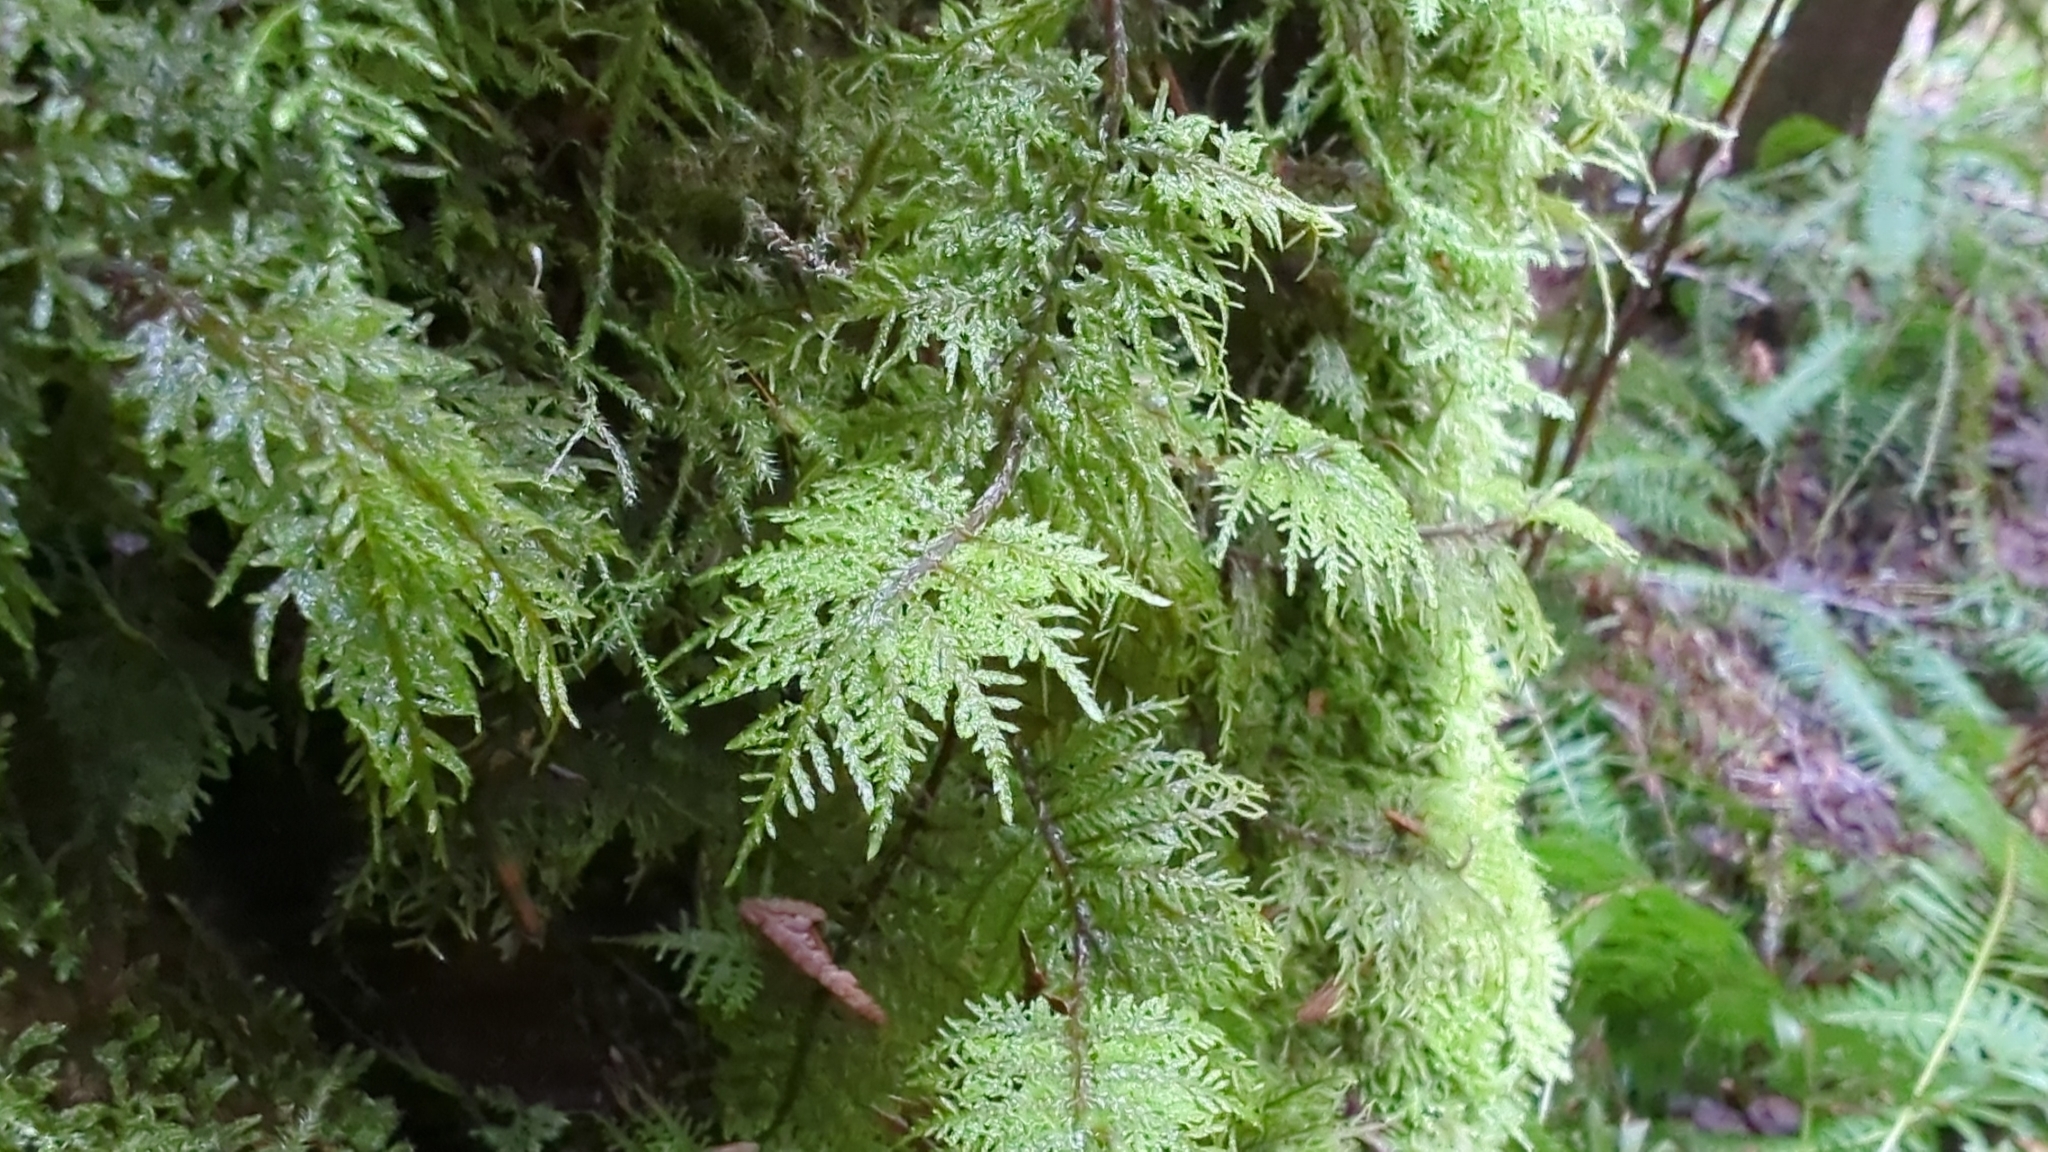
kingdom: Plantae
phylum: Bryophyta
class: Bryopsida
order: Hypnales
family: Hylocomiaceae
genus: Hylocomium
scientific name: Hylocomium splendens
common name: Stairstep moss
